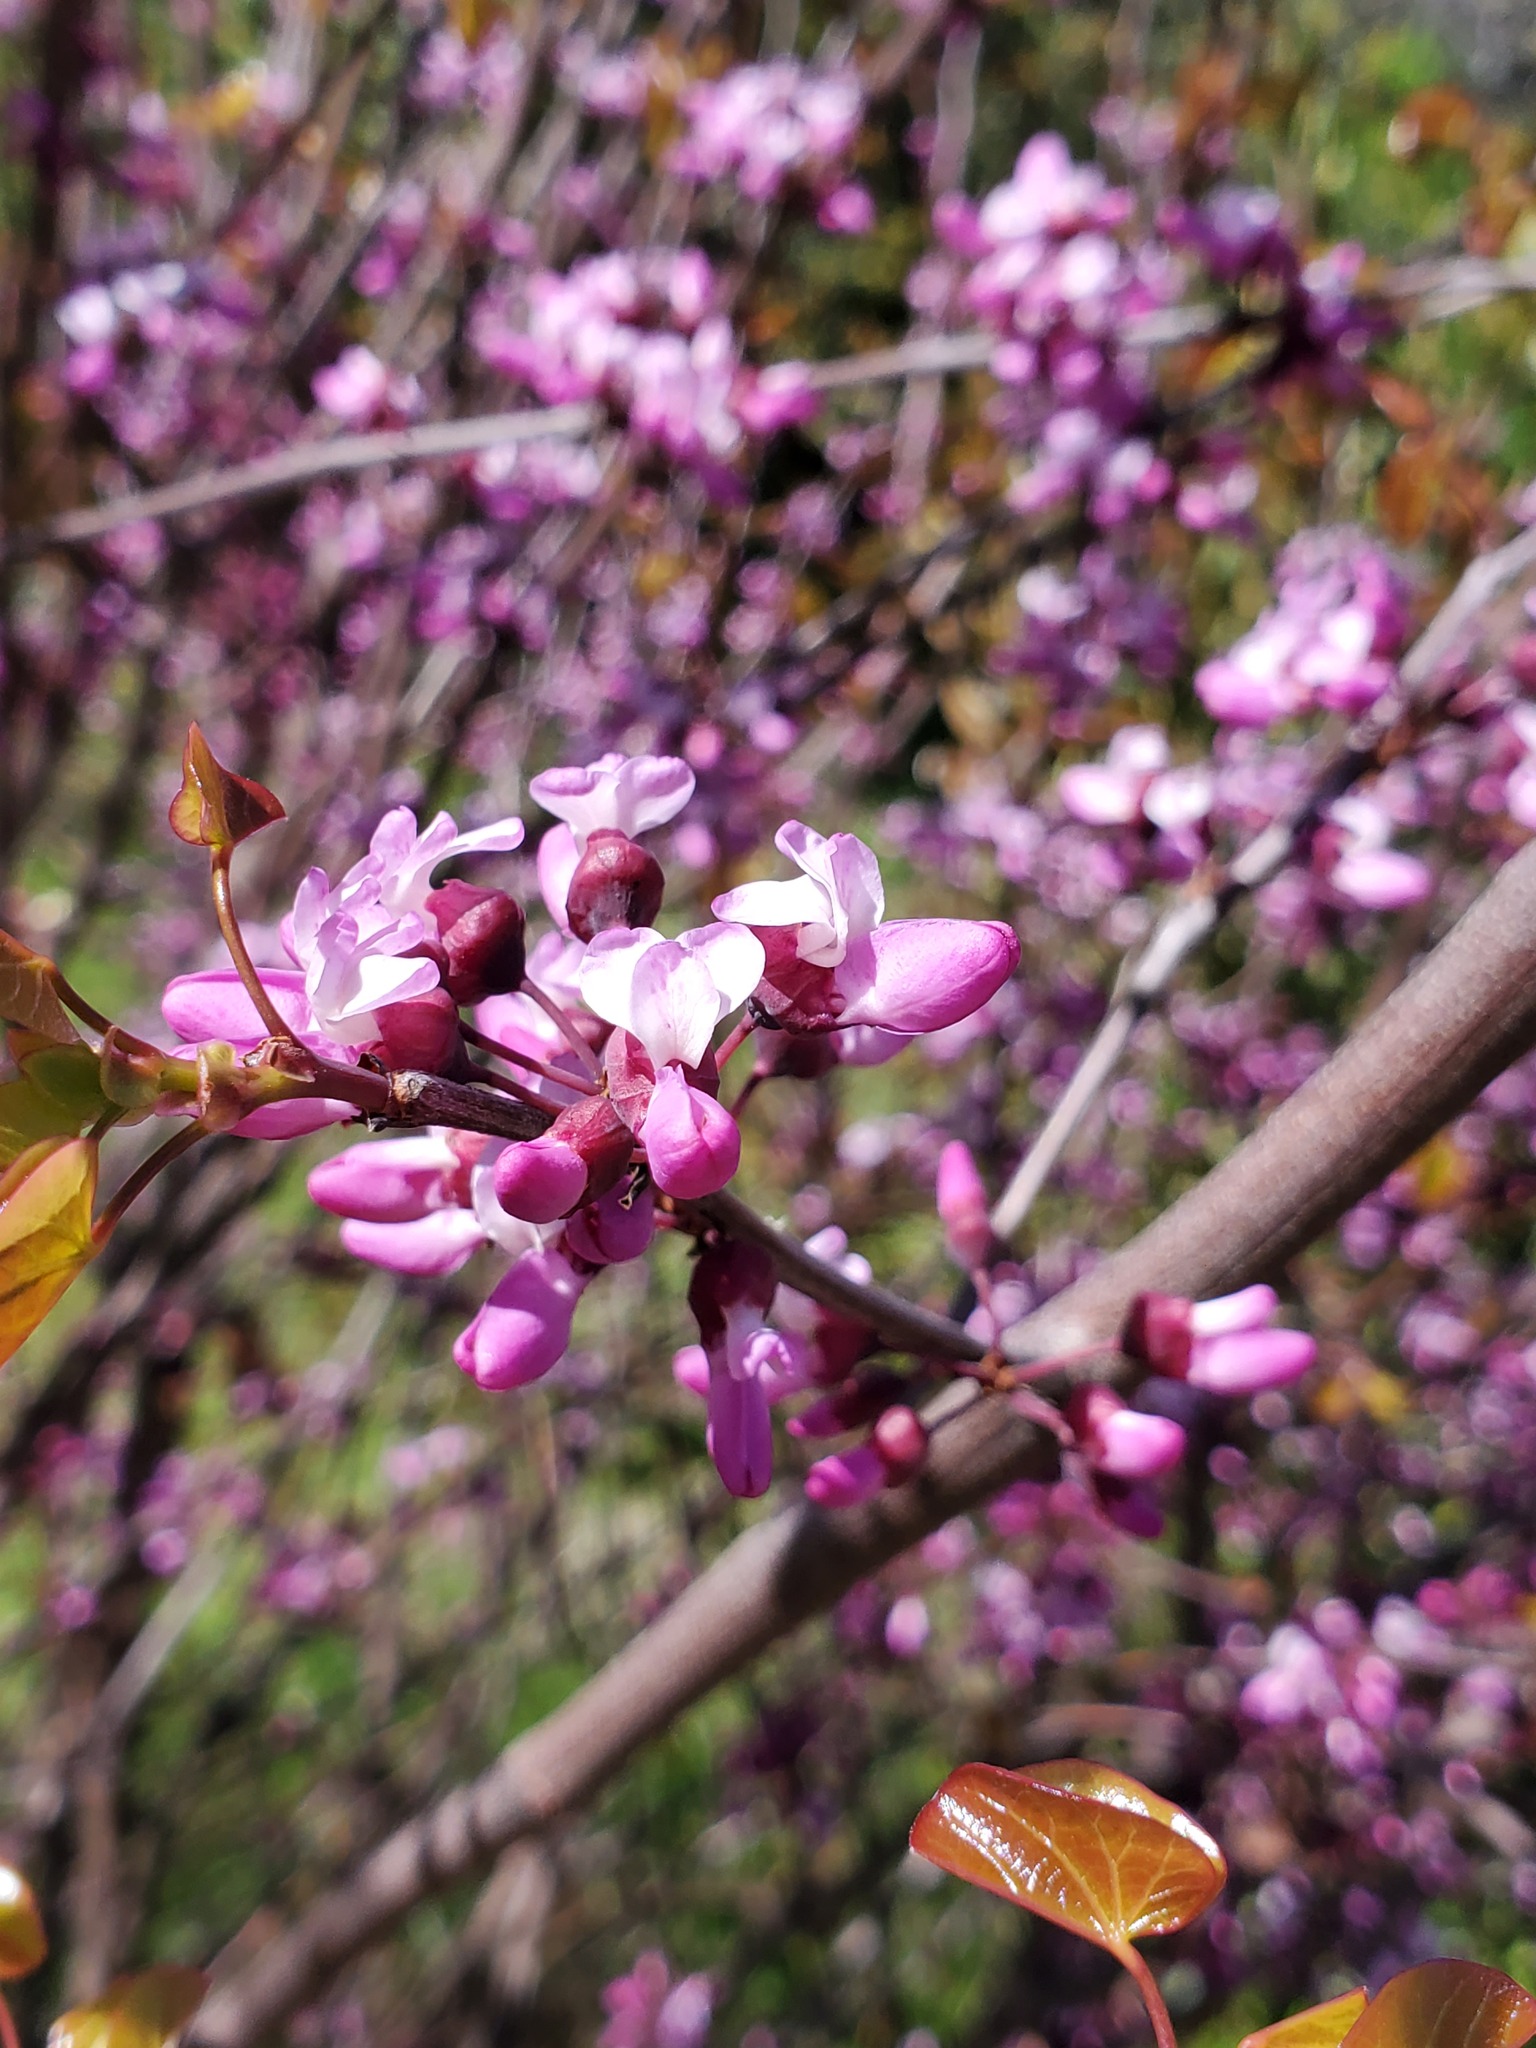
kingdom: Plantae
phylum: Tracheophyta
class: Magnoliopsida
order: Fabales
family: Fabaceae
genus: Cercis
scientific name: Cercis occidentalis
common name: California redbud
